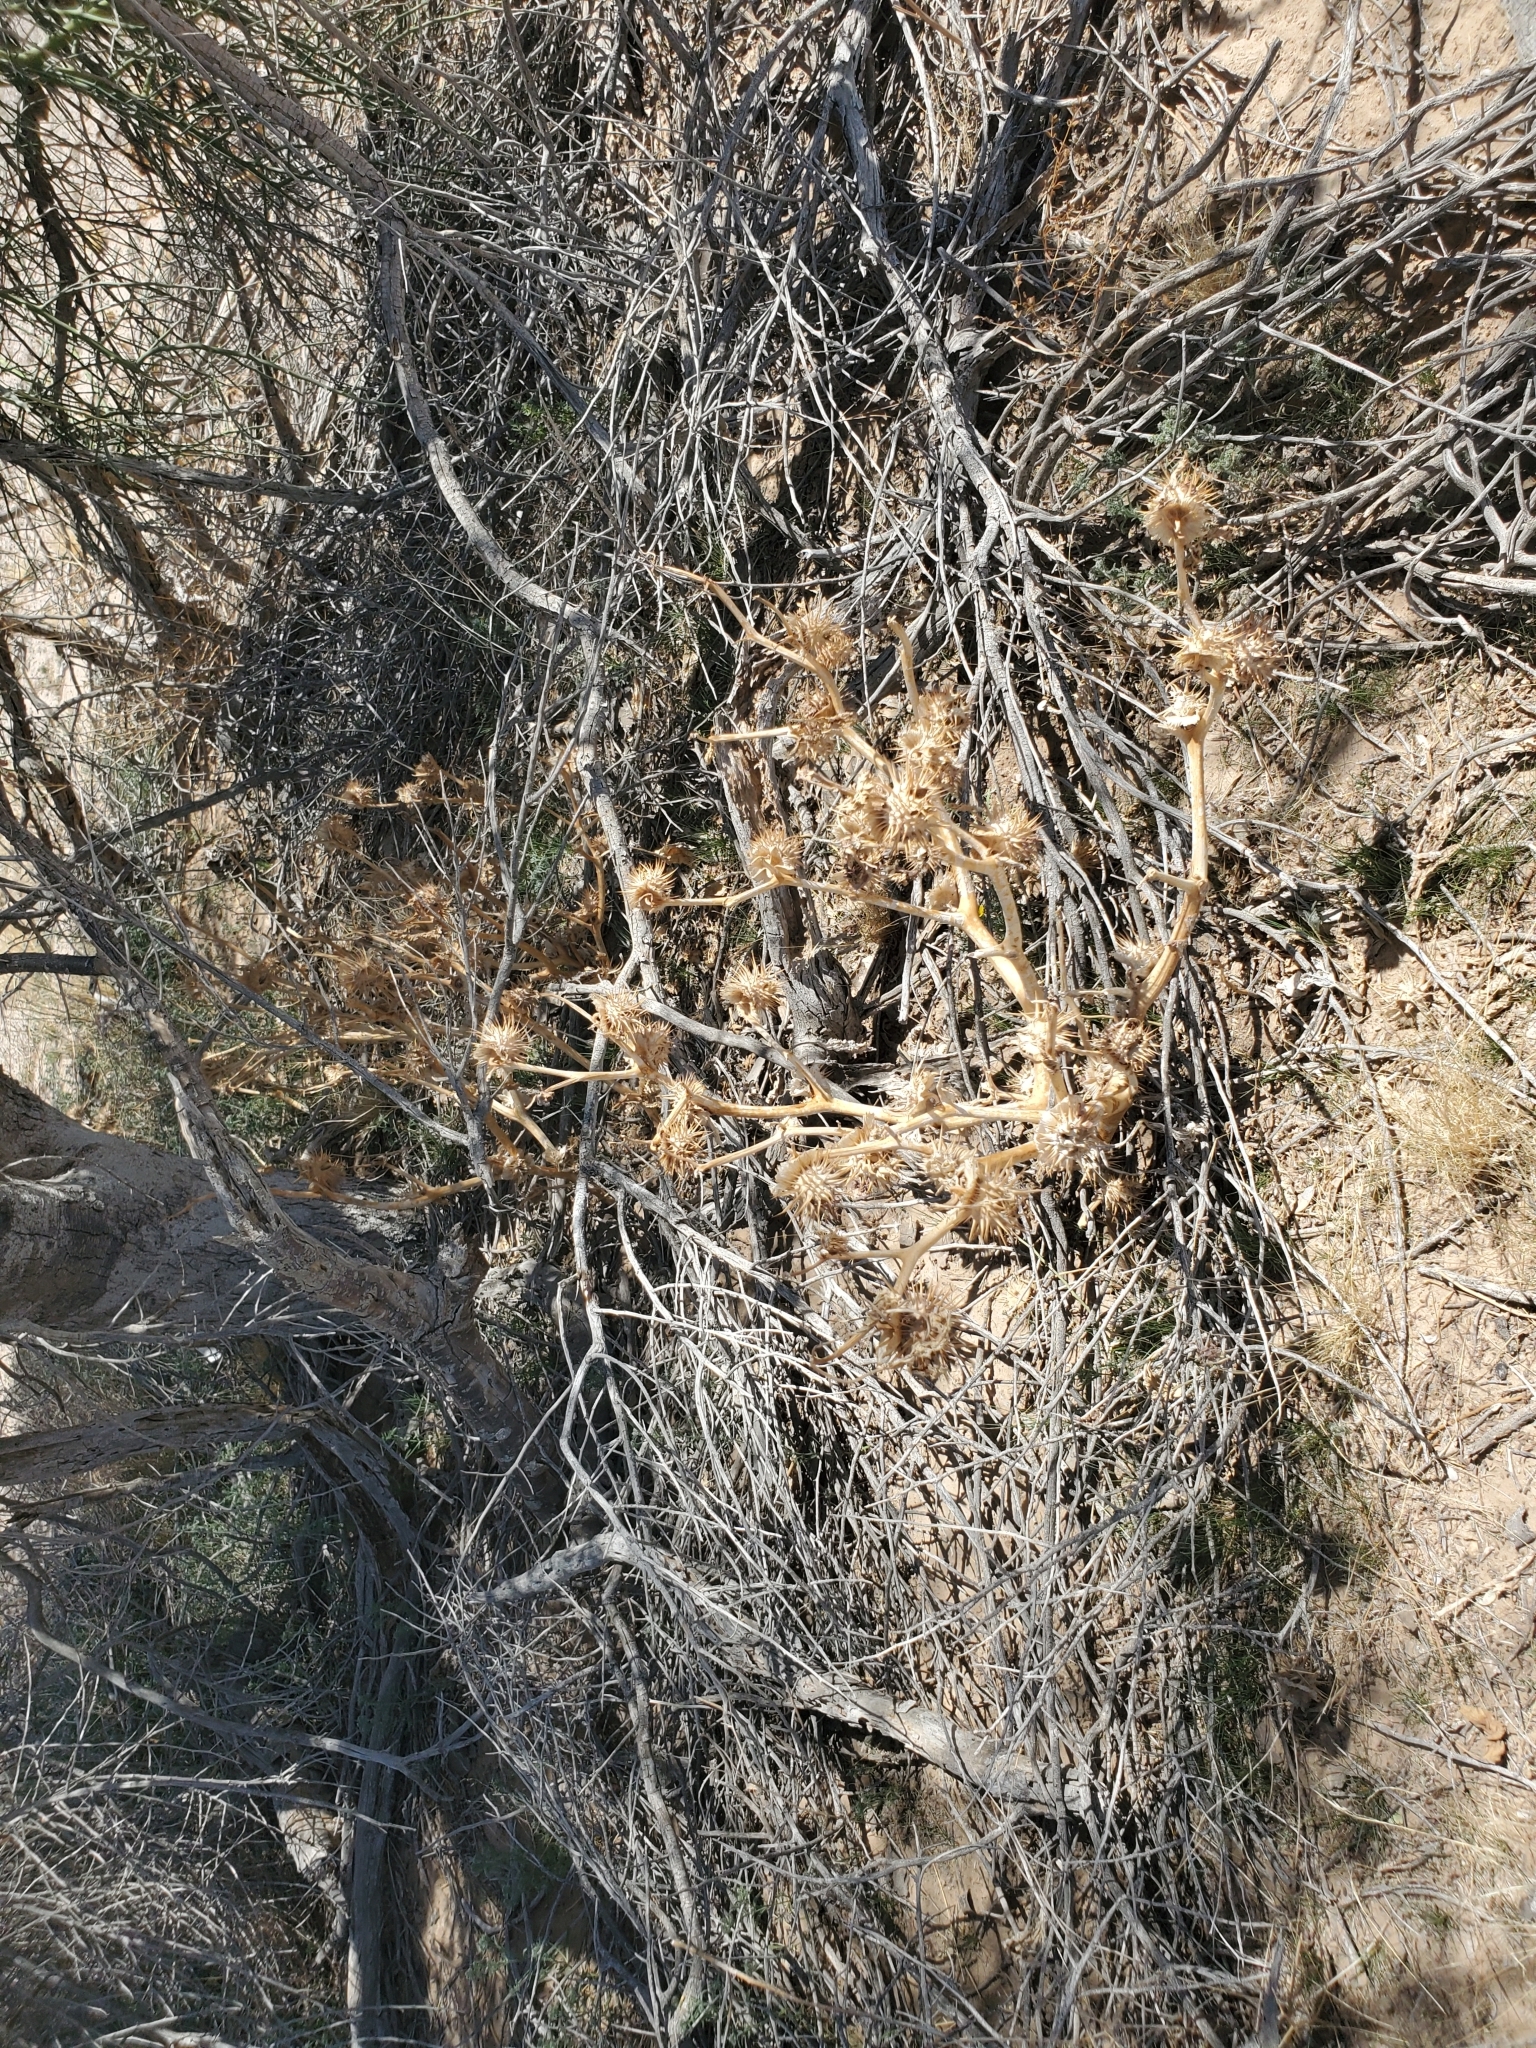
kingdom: Plantae
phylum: Tracheophyta
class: Magnoliopsida
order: Solanales
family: Solanaceae
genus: Datura
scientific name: Datura discolor
